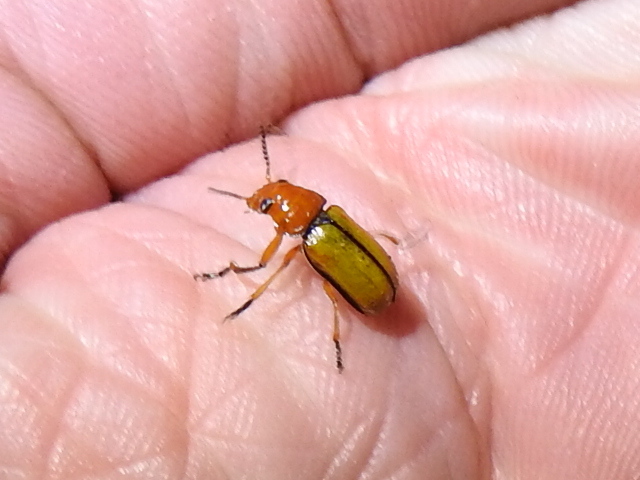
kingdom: Animalia
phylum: Arthropoda
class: Insecta
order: Coleoptera
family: Chrysomelidae
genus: Anomoea
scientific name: Anomoea laticlavia
